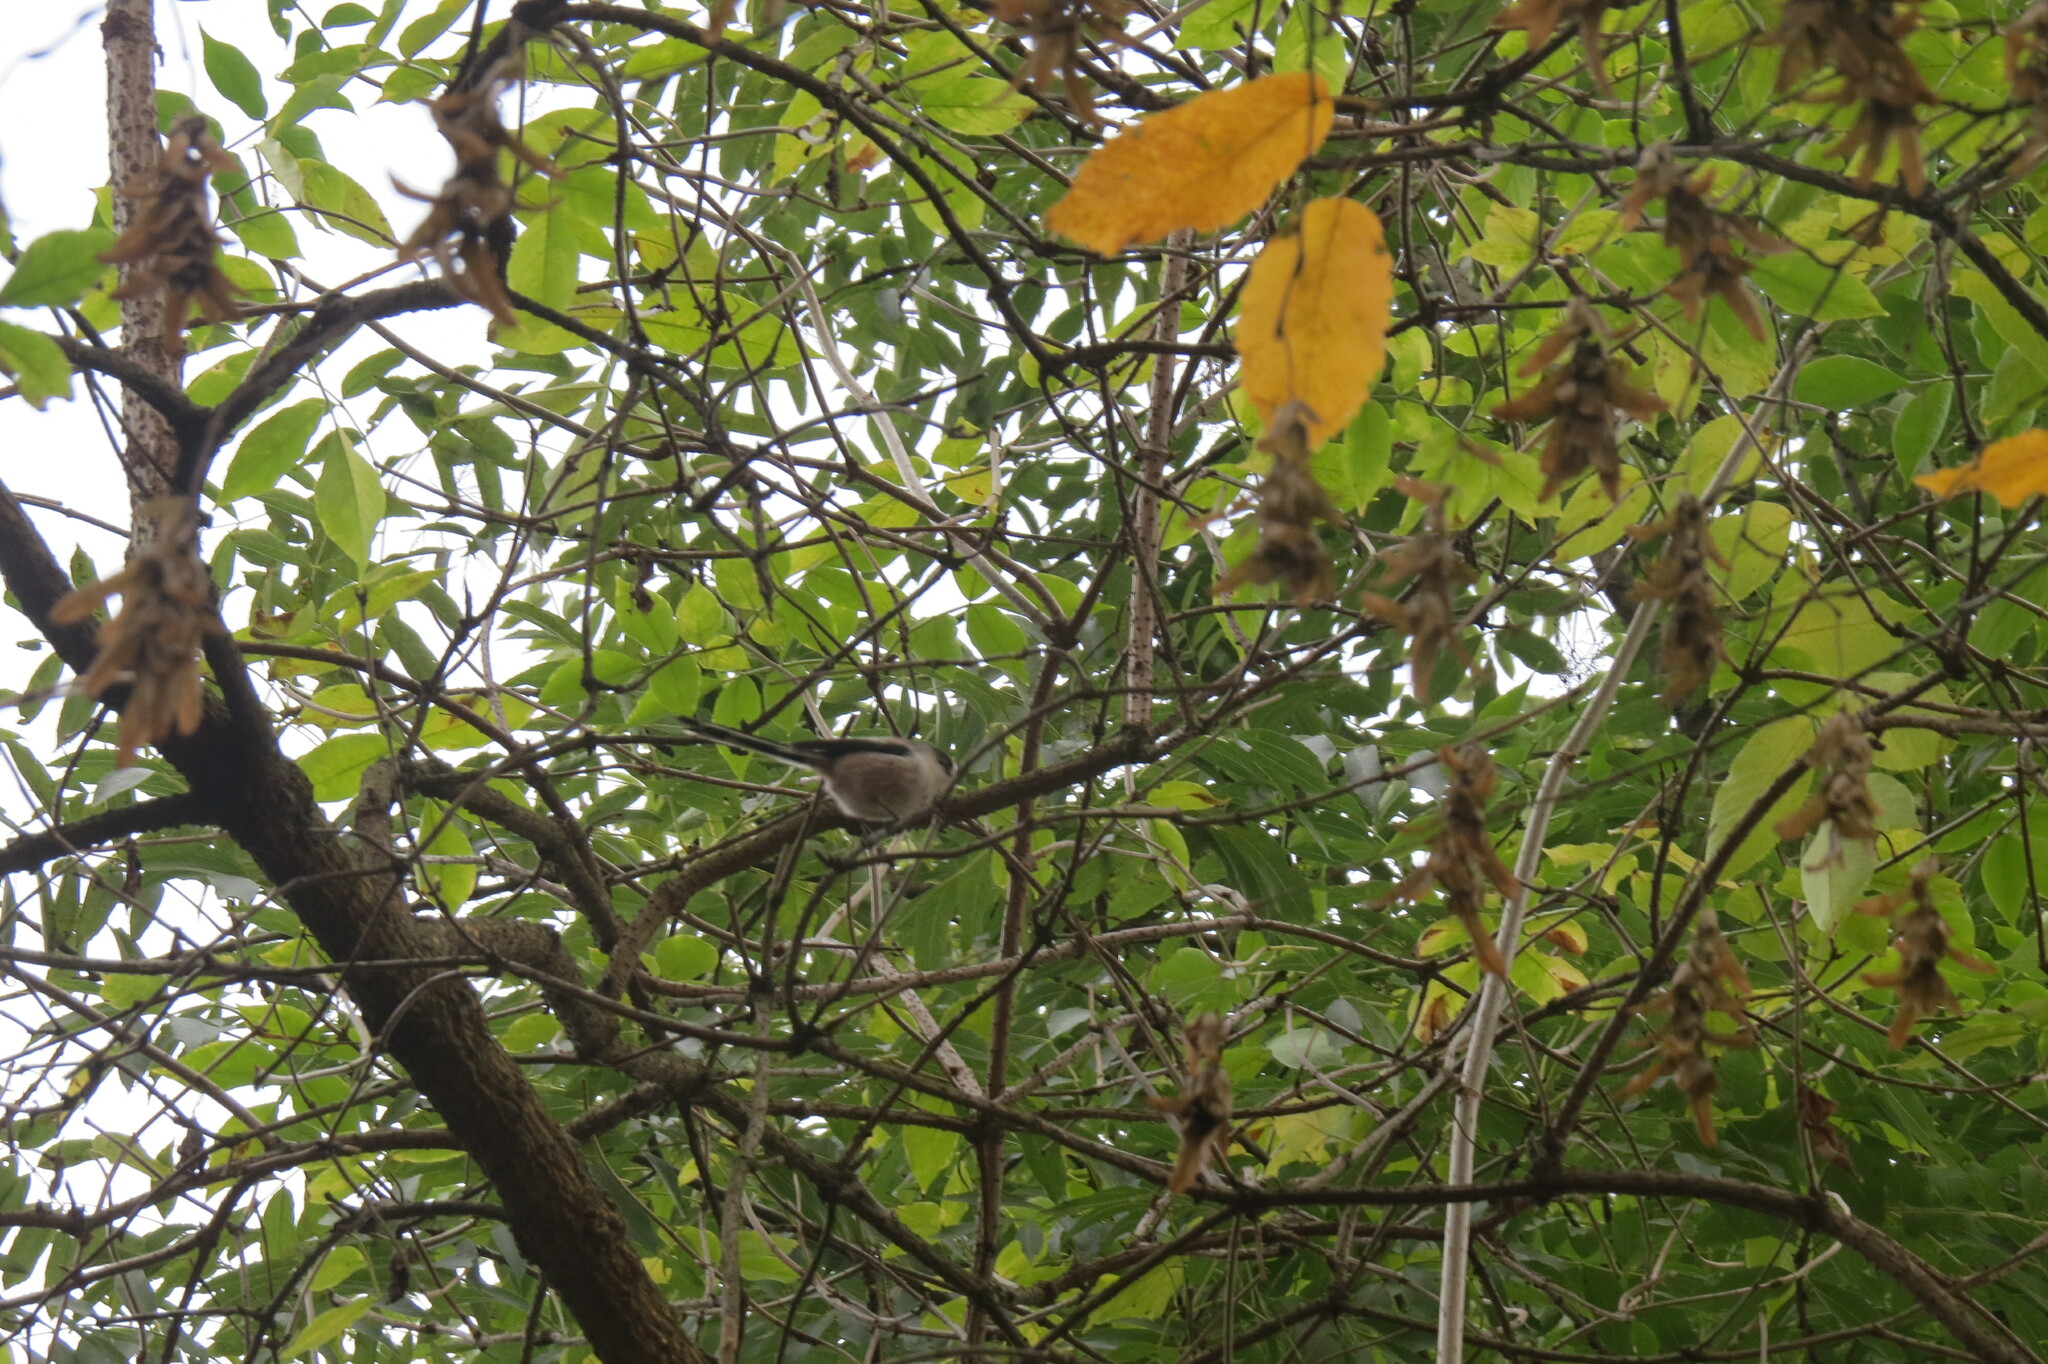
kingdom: Animalia
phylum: Chordata
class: Aves
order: Passeriformes
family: Aegithalidae
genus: Aegithalos
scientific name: Aegithalos caudatus
